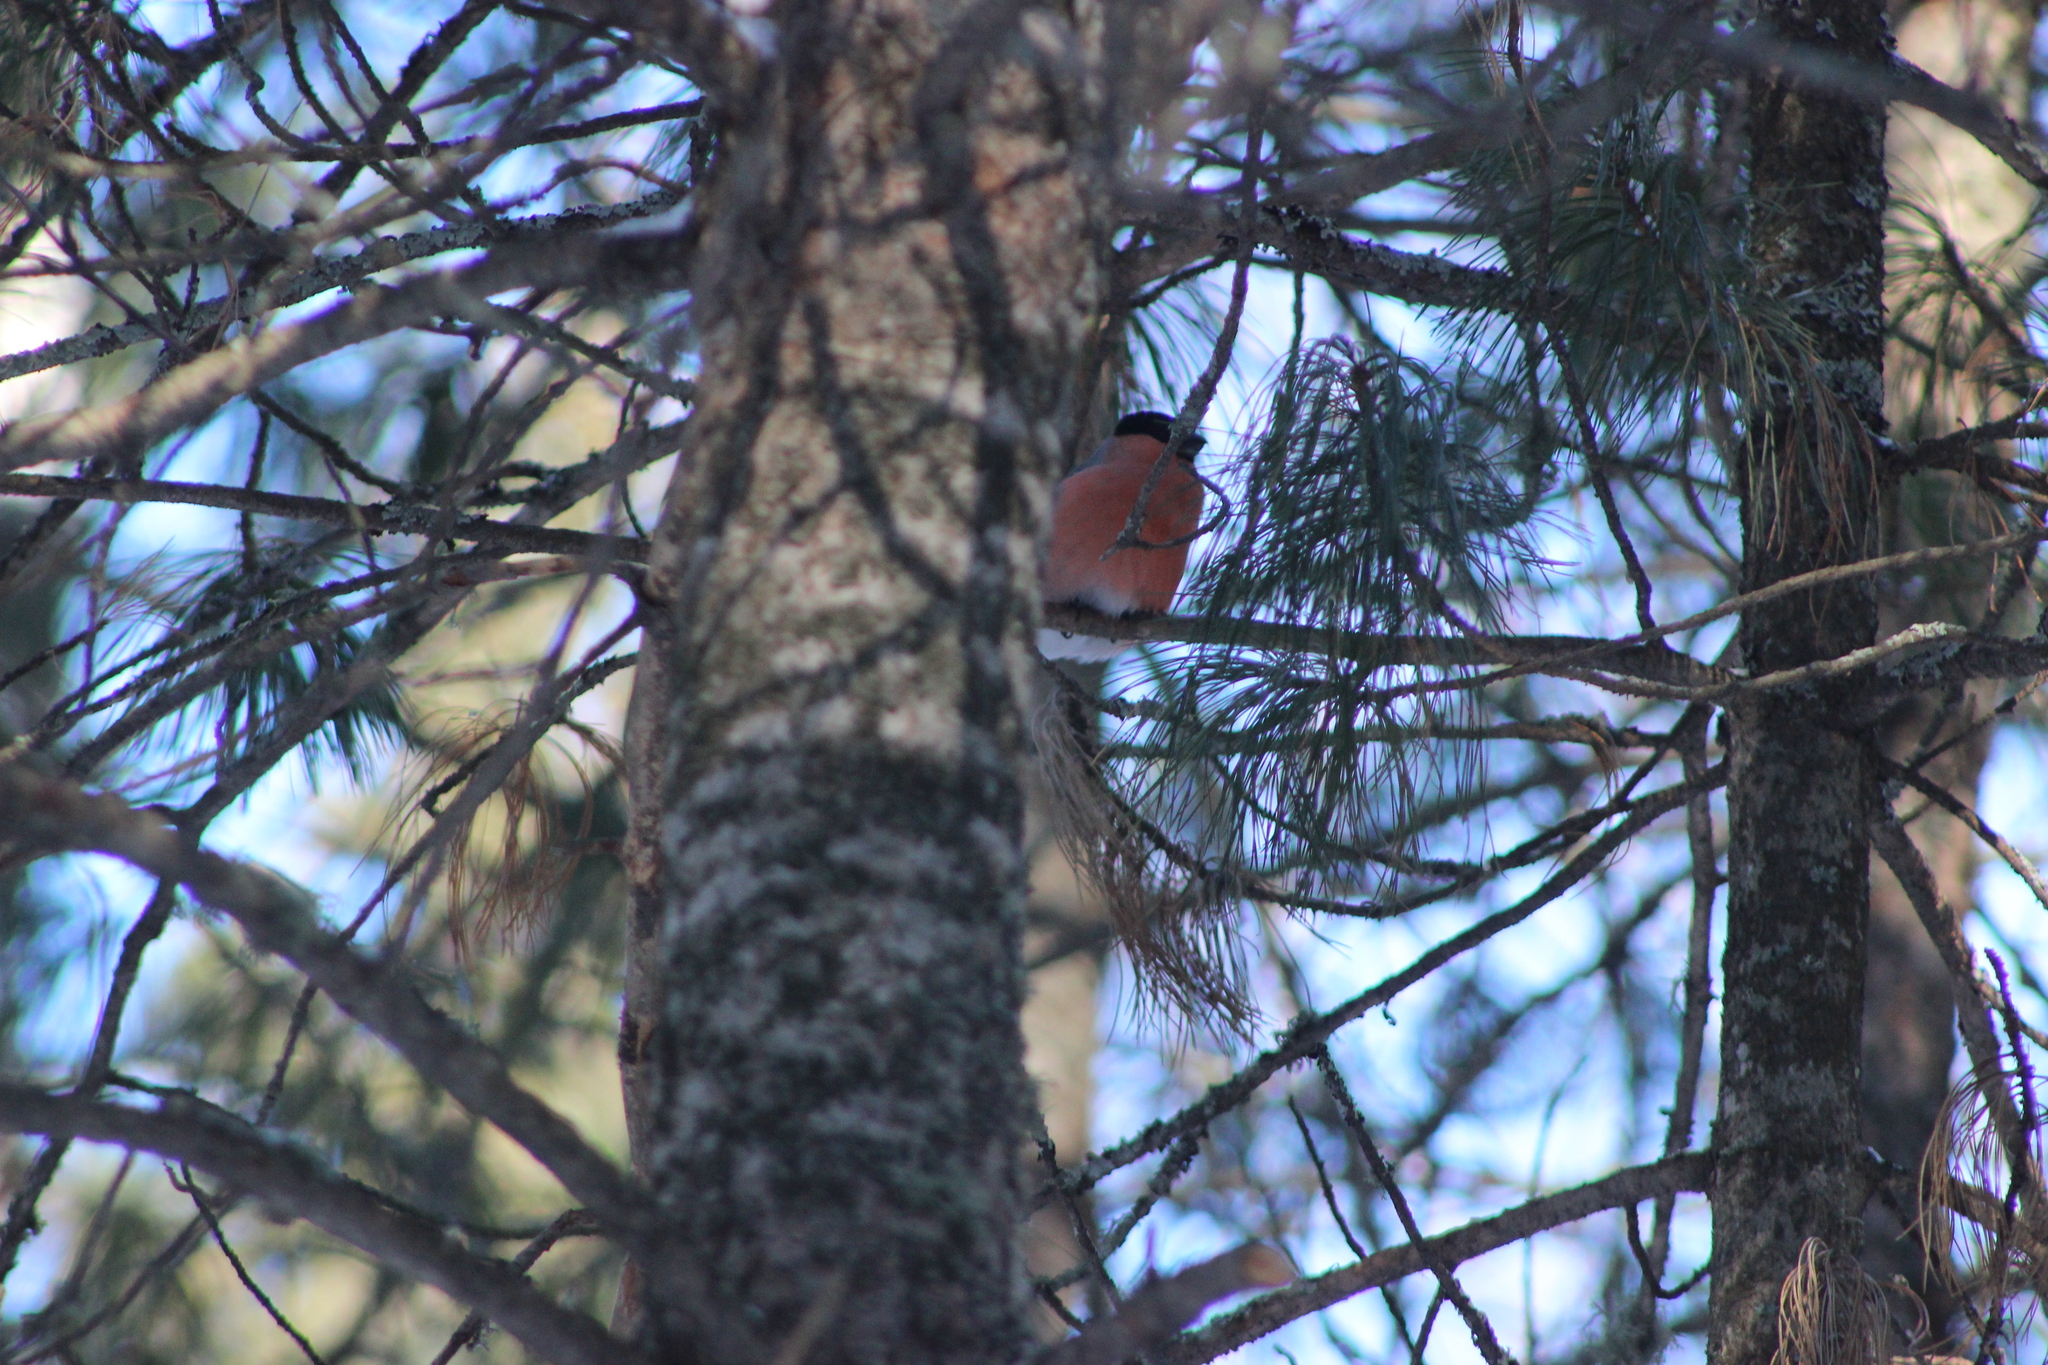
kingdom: Animalia
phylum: Chordata
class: Aves
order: Passeriformes
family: Fringillidae
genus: Pyrrhula
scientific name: Pyrrhula pyrrhula
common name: Eurasian bullfinch
